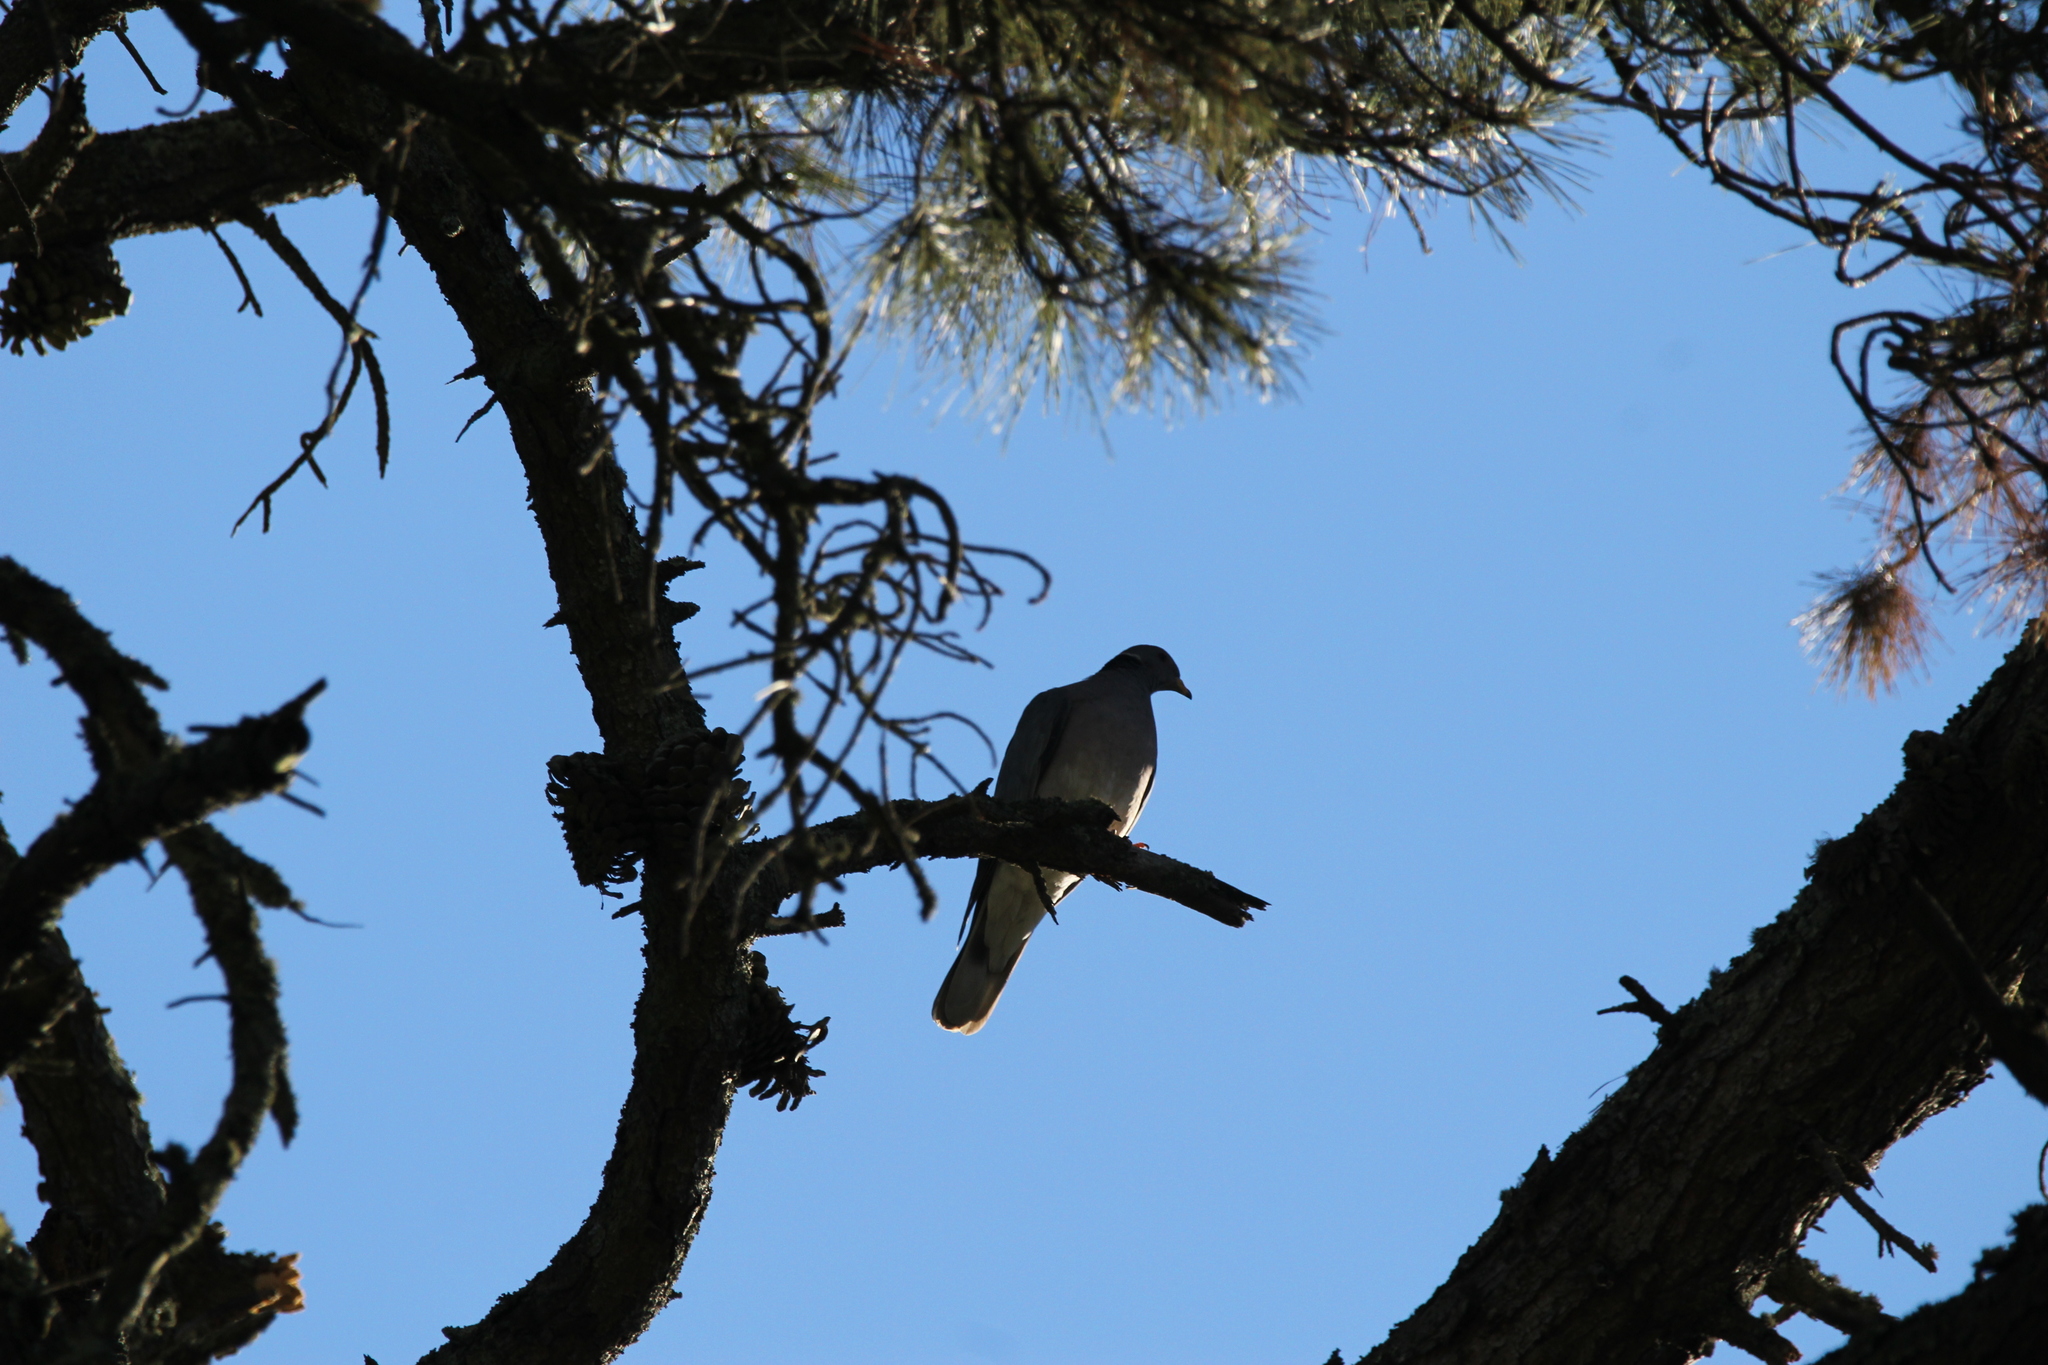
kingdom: Animalia
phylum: Chordata
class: Aves
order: Columbiformes
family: Columbidae
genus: Patagioenas
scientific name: Patagioenas fasciata
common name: Band-tailed pigeon
